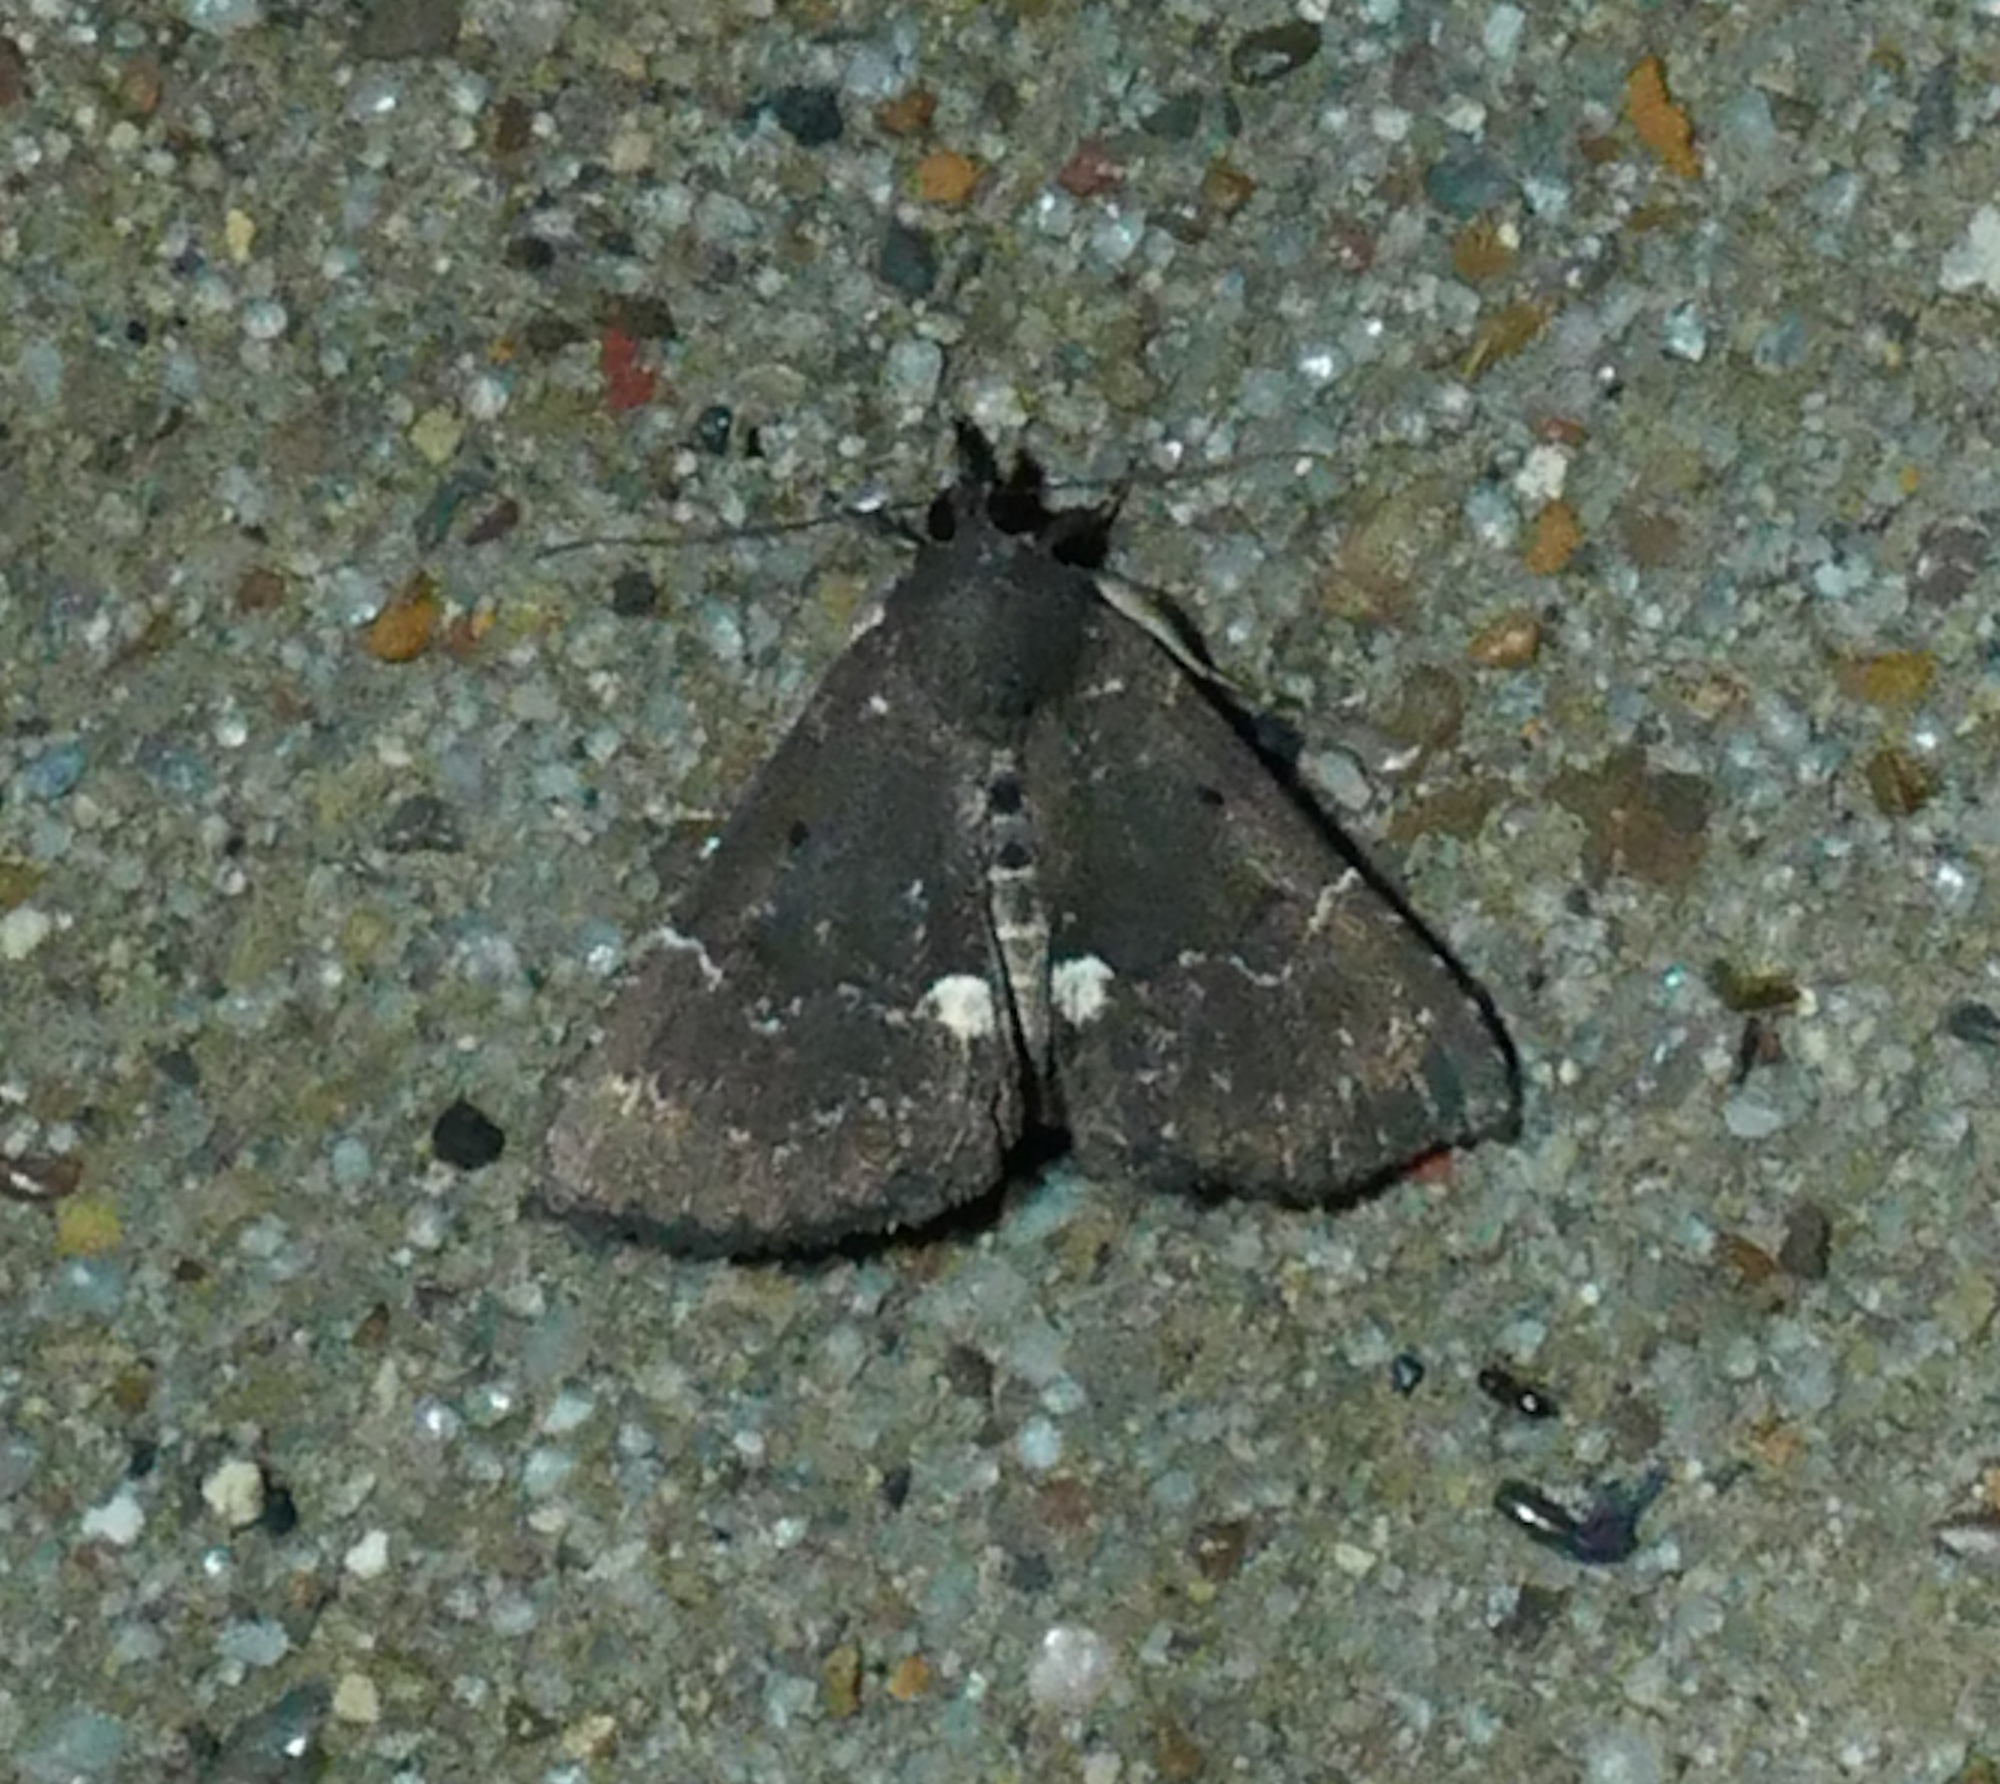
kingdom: Animalia
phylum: Arthropoda
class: Insecta
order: Lepidoptera
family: Erebidae
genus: Hypena
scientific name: Hypena bijugalis
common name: Dimorphic bomolocha moth
